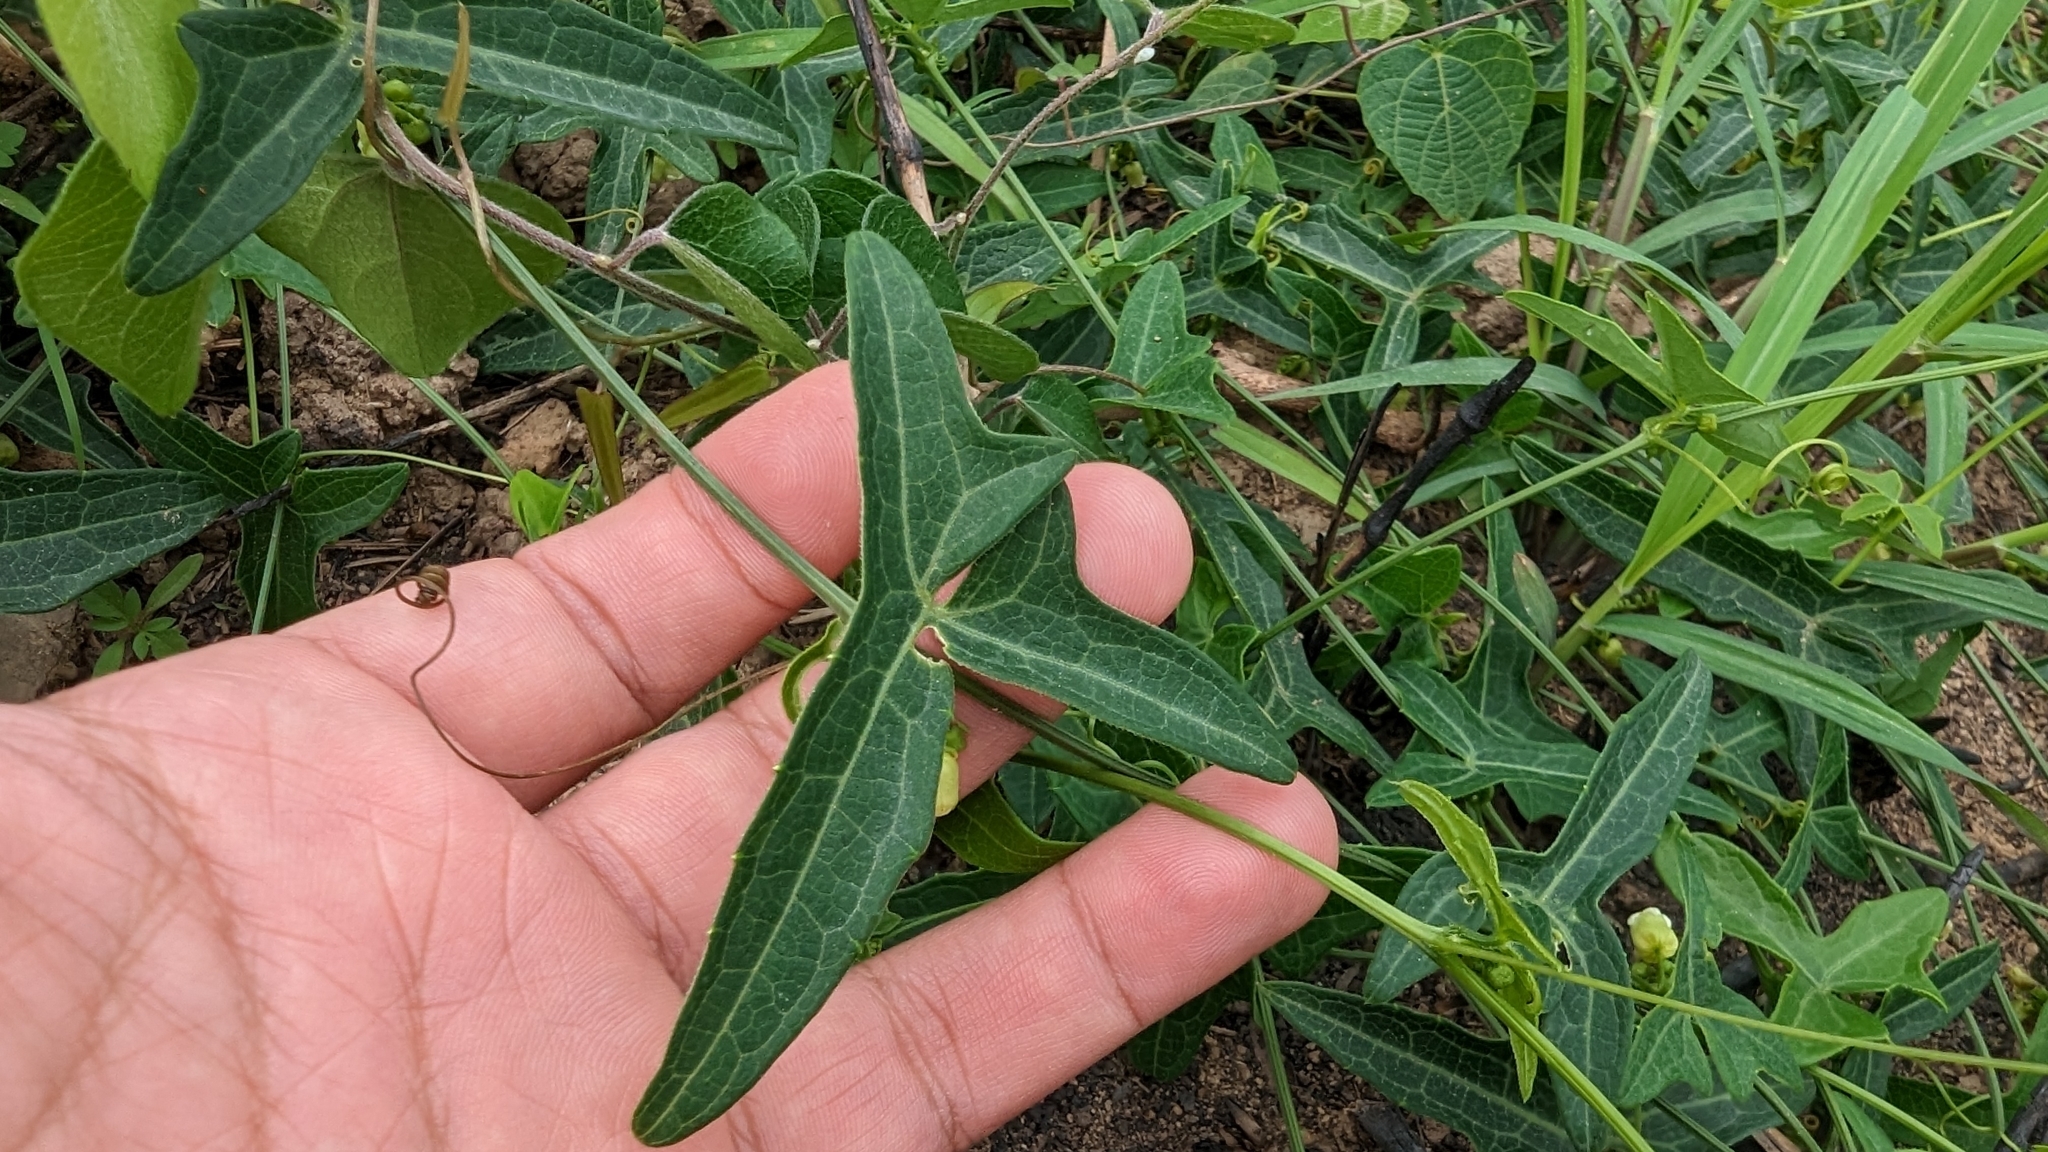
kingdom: Plantae
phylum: Tracheophyta
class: Magnoliopsida
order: Cucurbitales
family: Cucurbitaceae
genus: Solena
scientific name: Solena amplexicaulis
